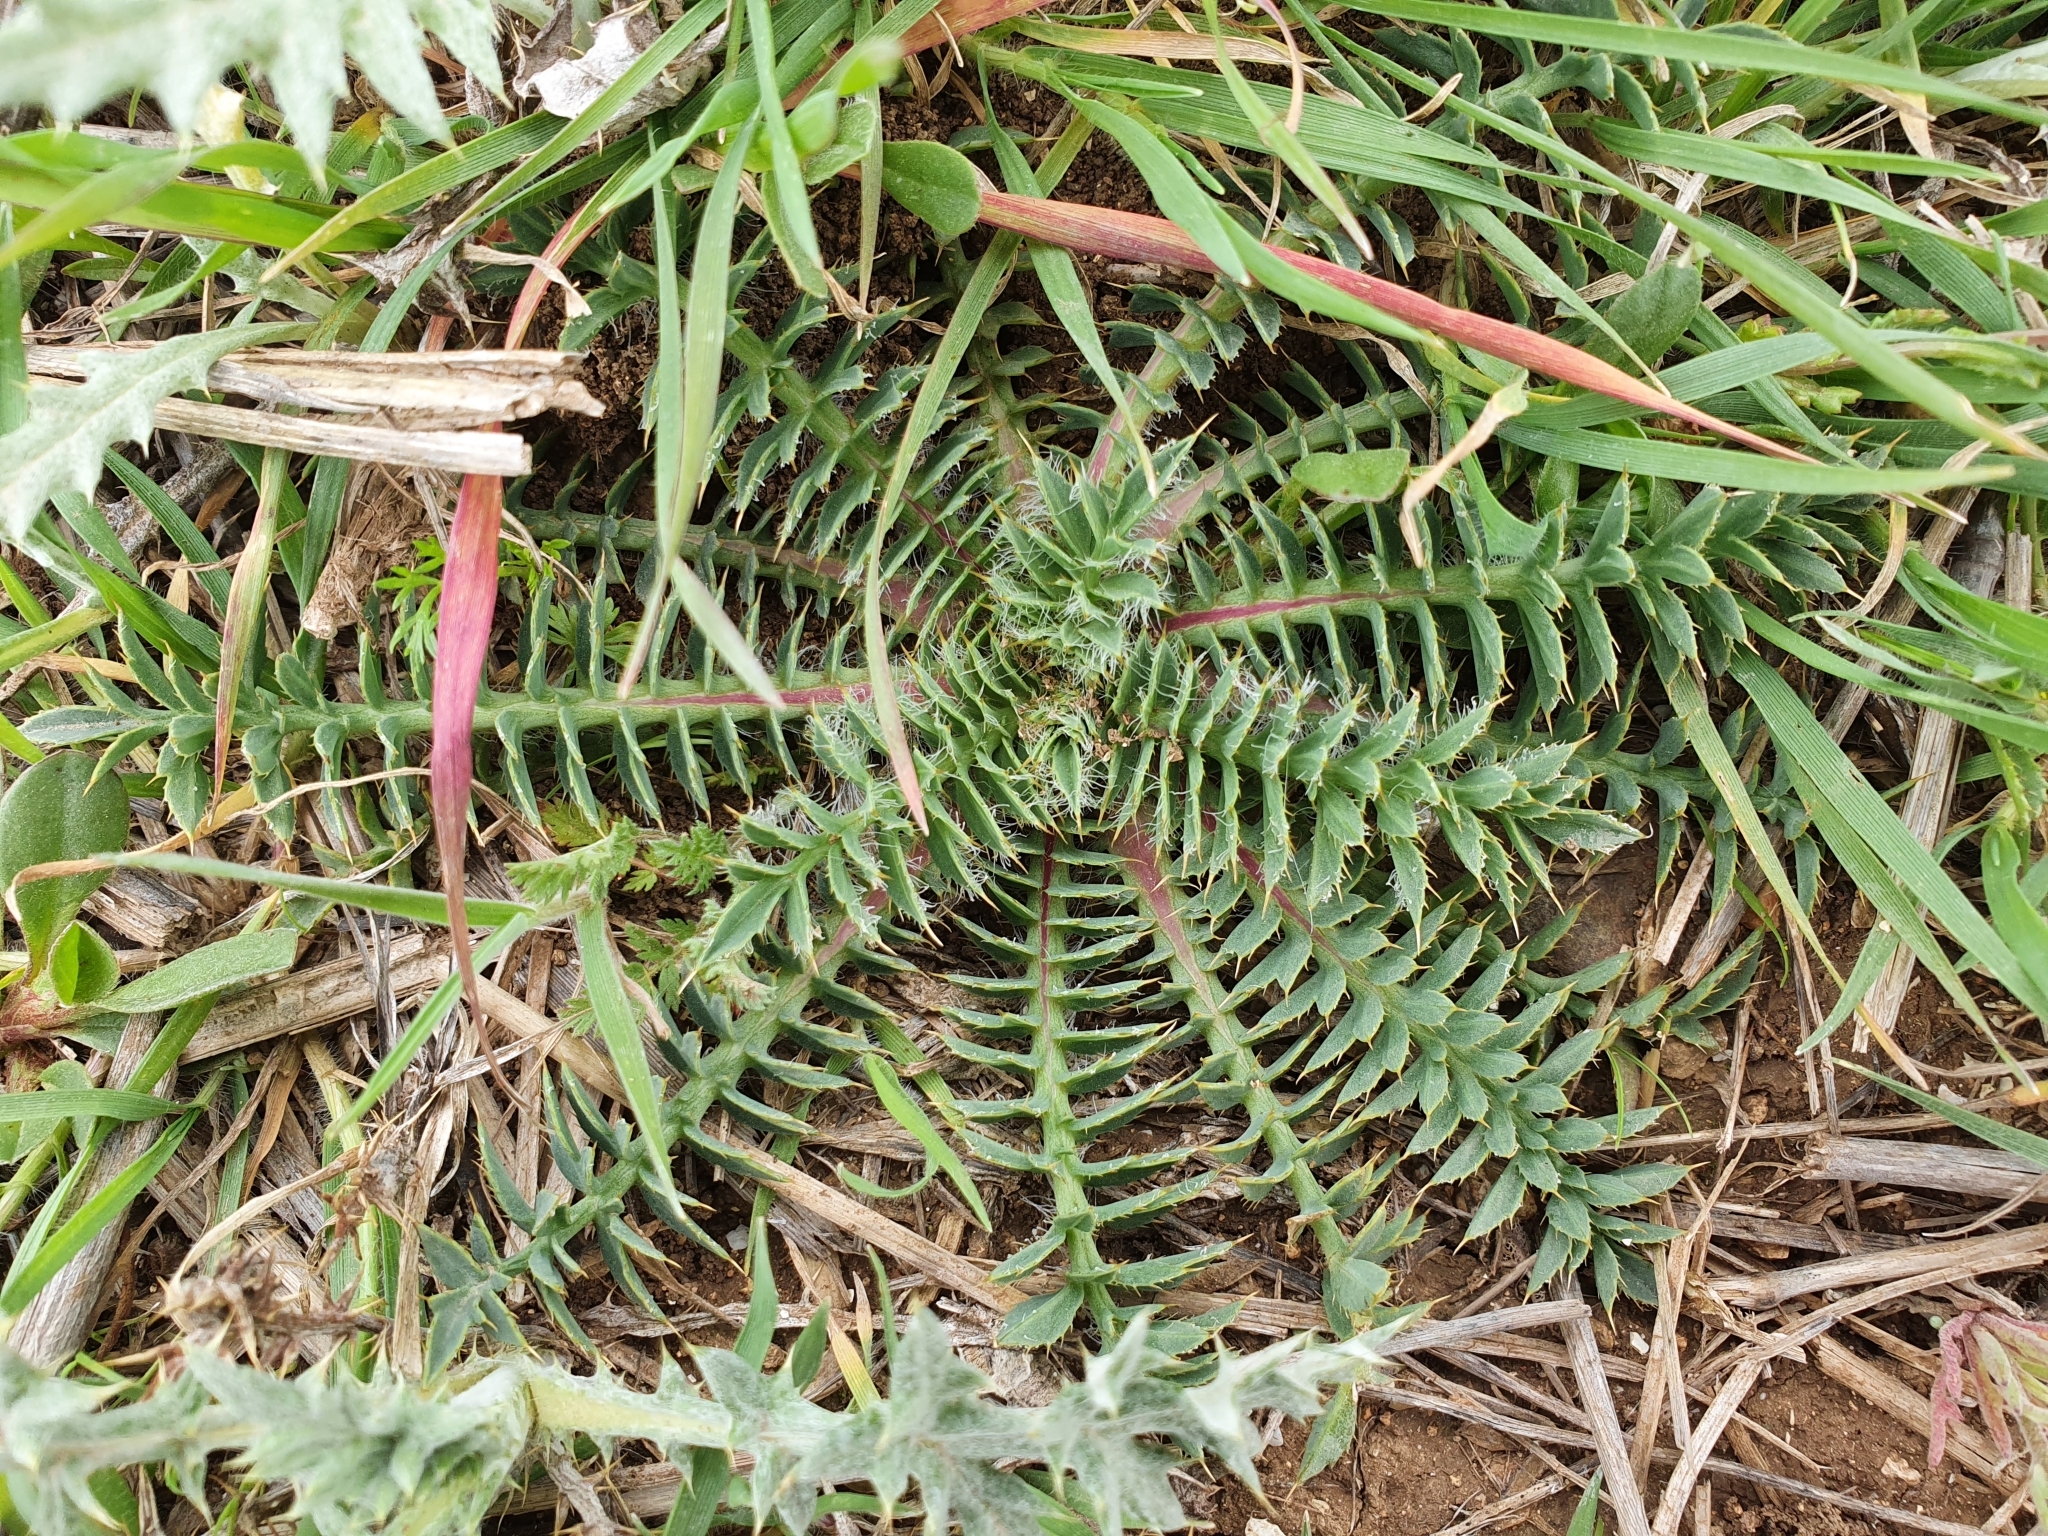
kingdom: Plantae
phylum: Tracheophyta
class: Magnoliopsida
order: Asterales
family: Asteraceae
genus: Carduncellus
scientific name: Carduncellus
